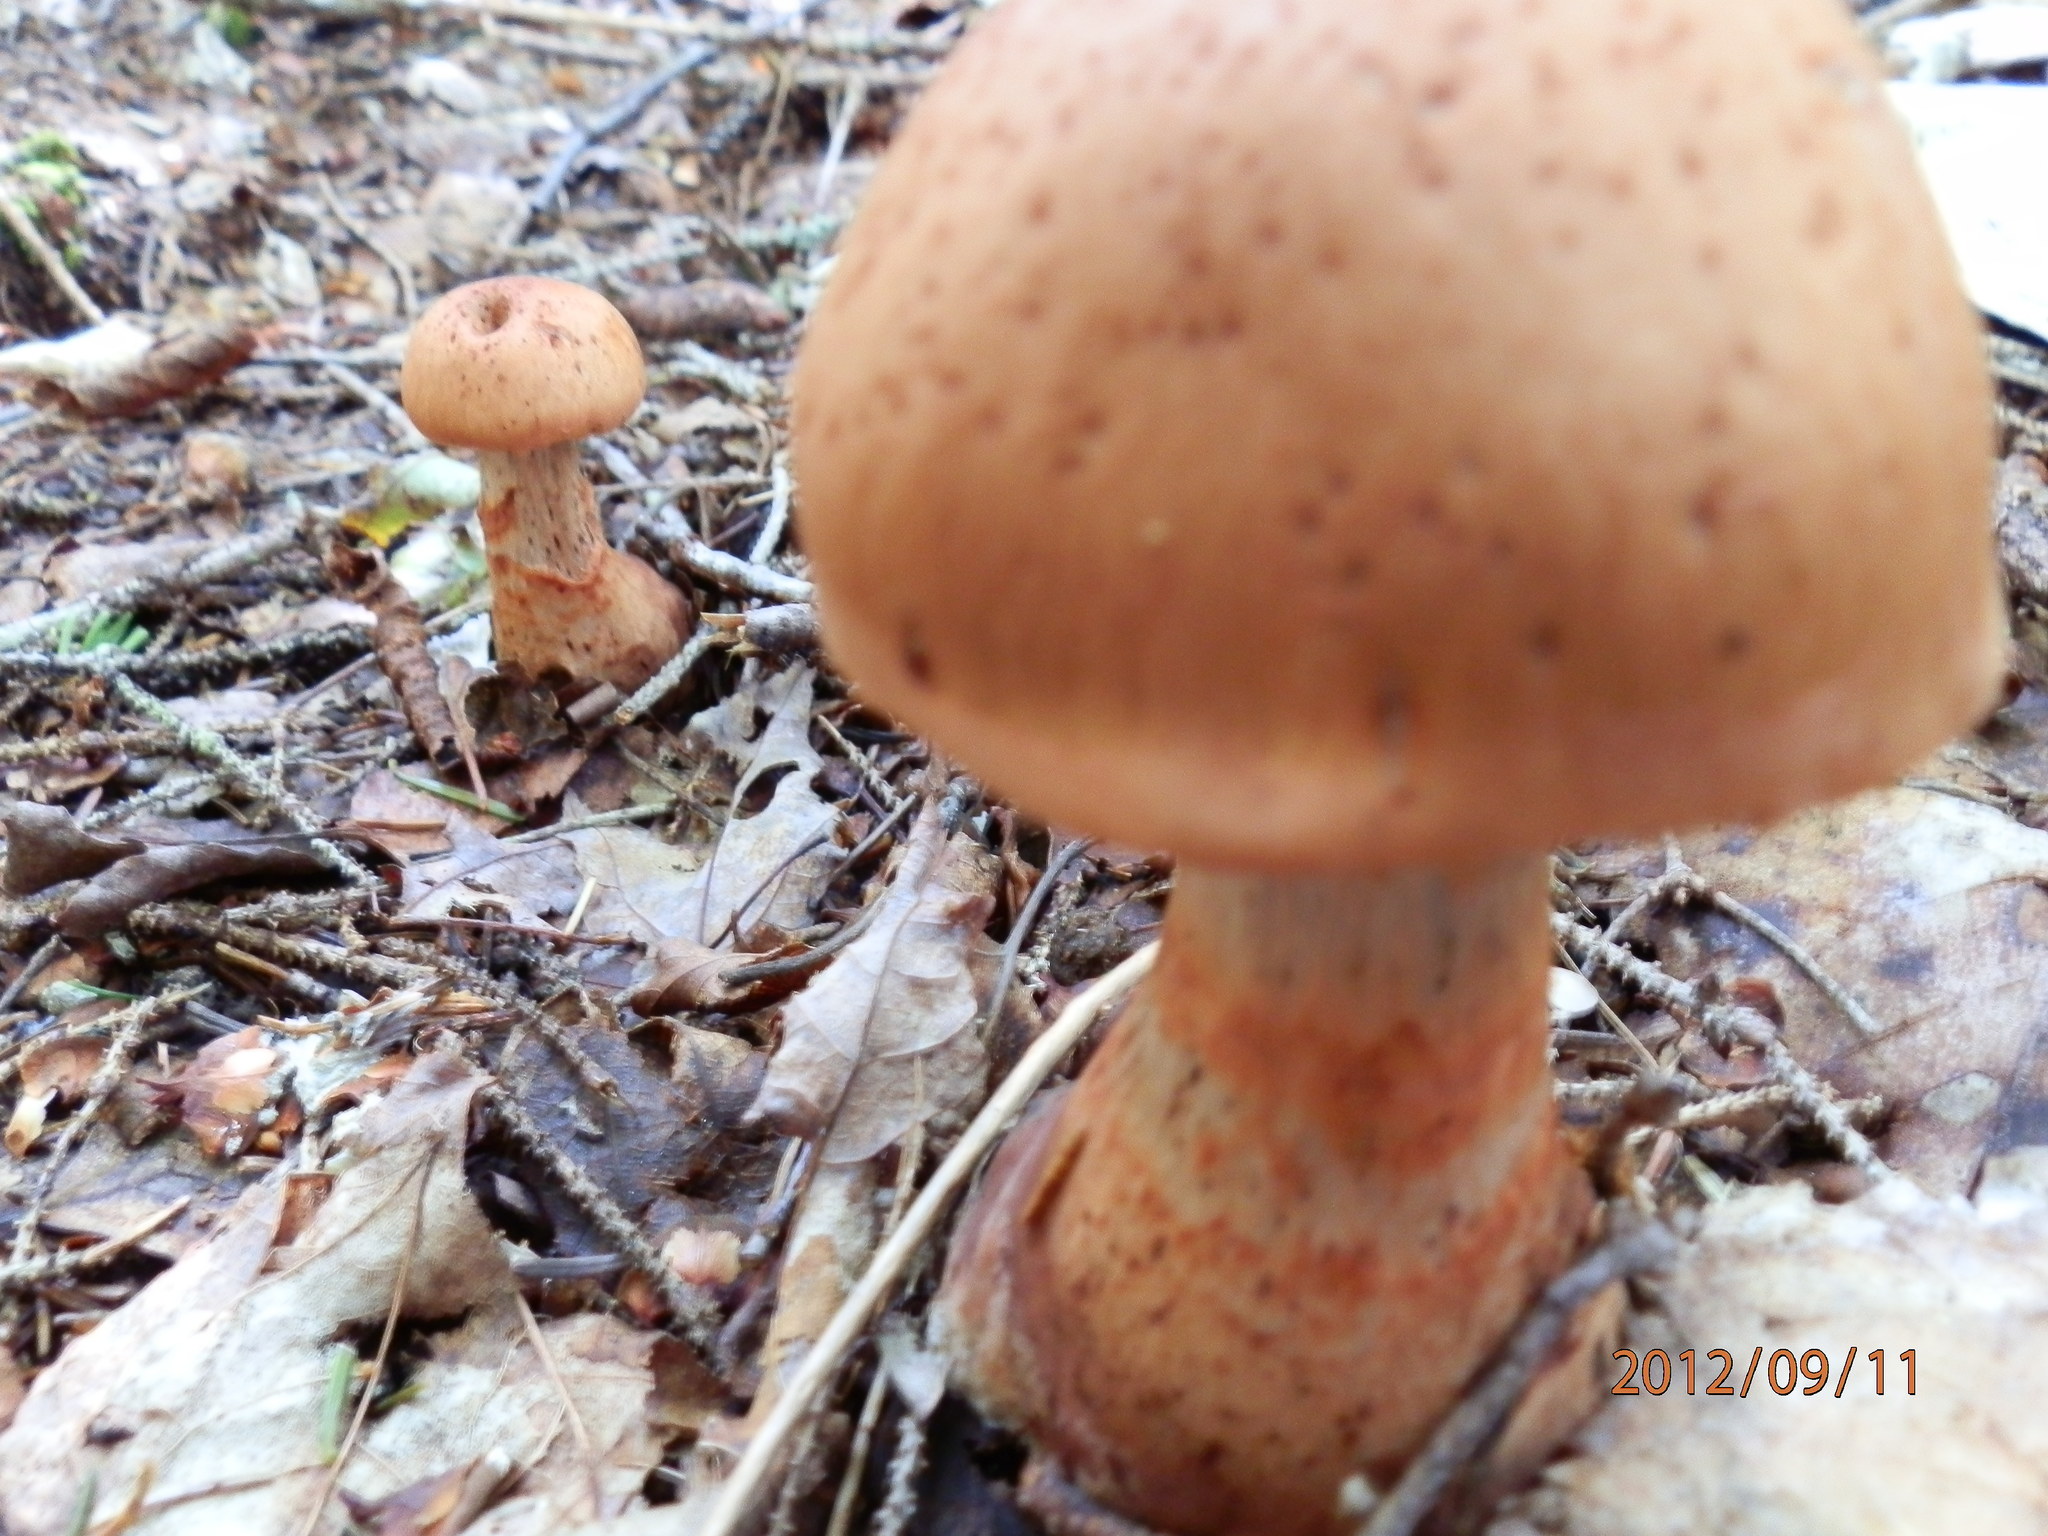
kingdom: Fungi
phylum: Basidiomycota
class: Agaricomycetes
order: Agaricales
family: Cortinariaceae
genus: Cortinarius
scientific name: Cortinarius armillatus
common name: Red banded webcap
